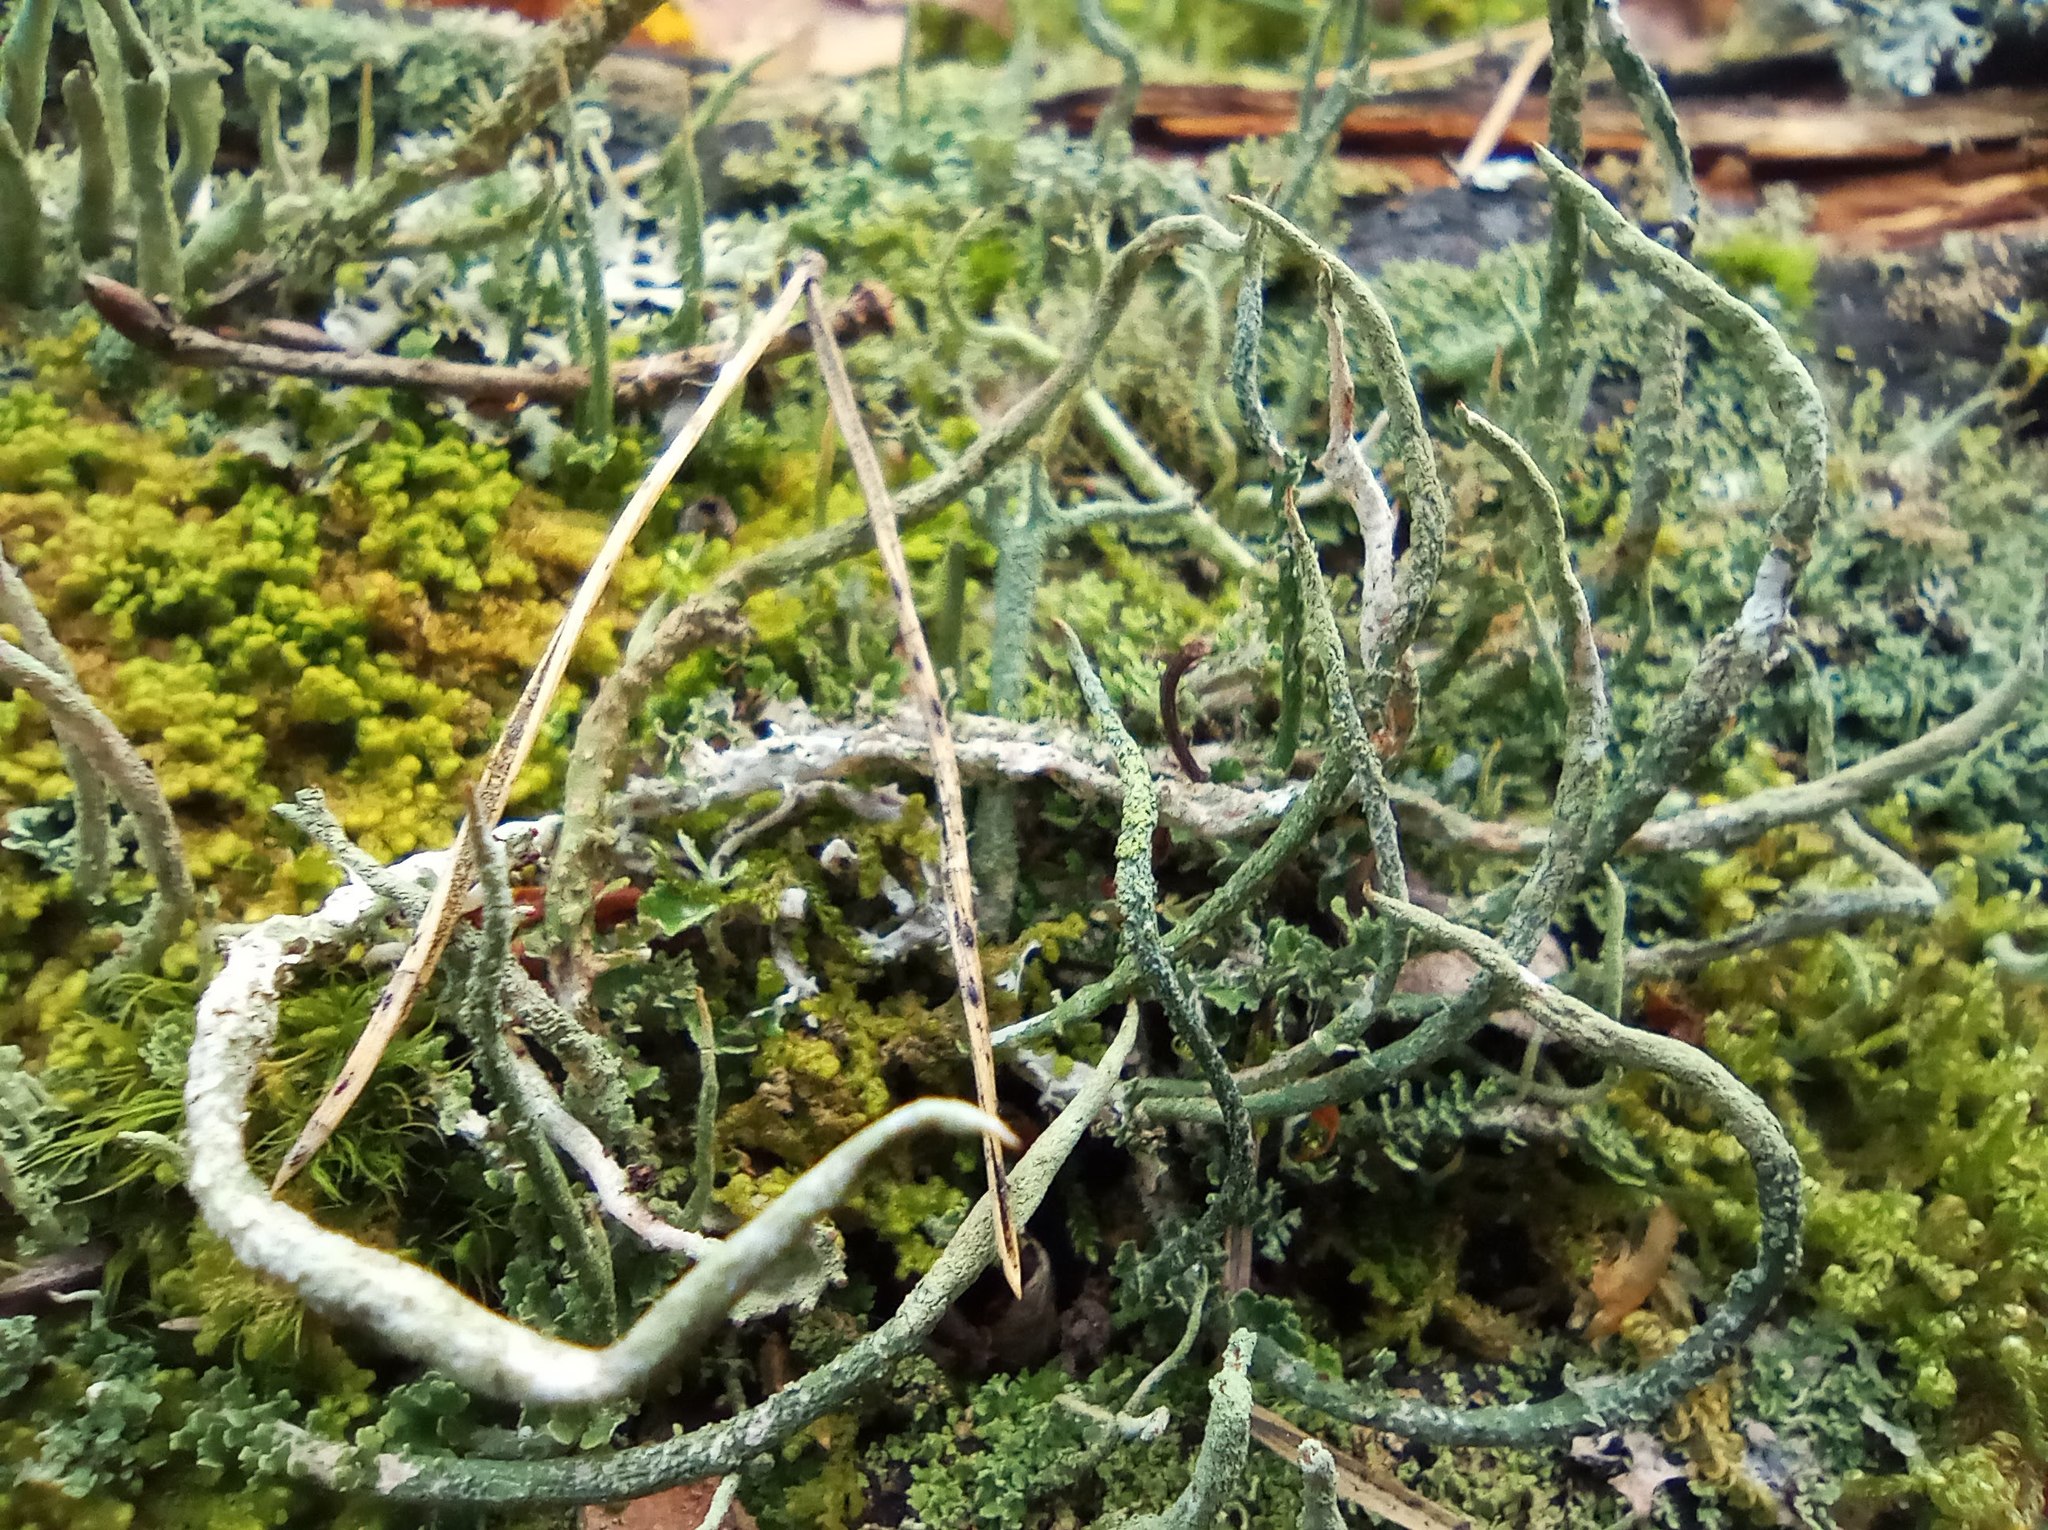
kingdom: Fungi
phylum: Ascomycota
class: Lecanoromycetes
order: Lecanorales
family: Cladoniaceae
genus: Cladonia
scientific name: Cladonia cornuta
